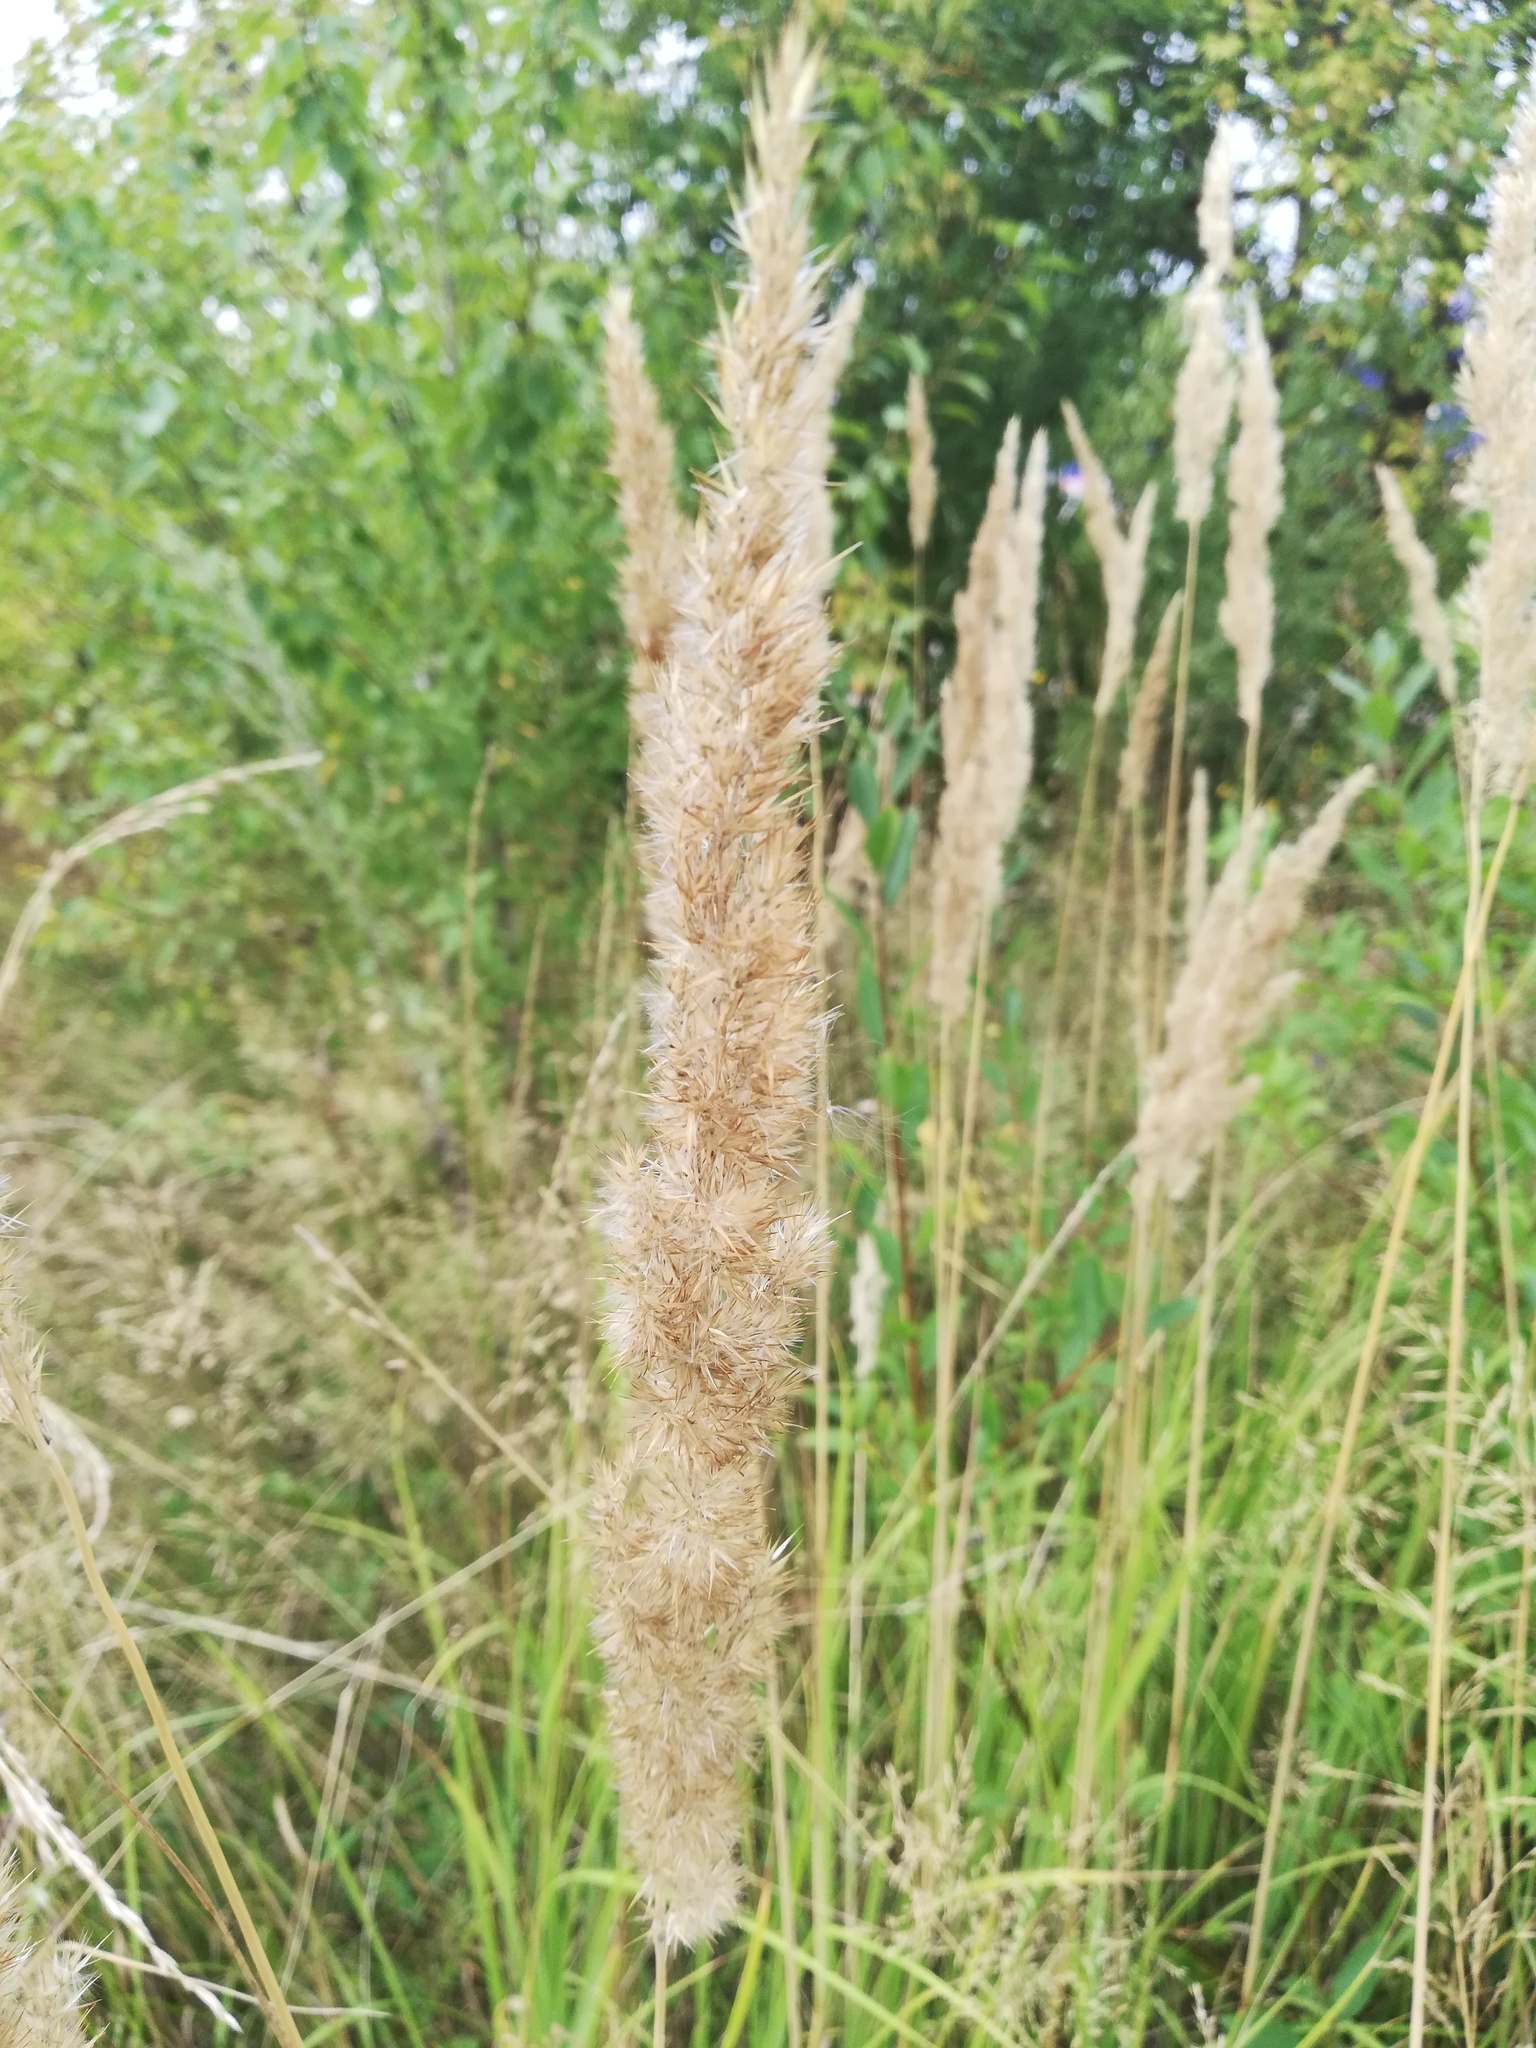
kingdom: Plantae
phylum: Tracheophyta
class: Liliopsida
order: Poales
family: Poaceae
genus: Calamagrostis
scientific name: Calamagrostis epigejos
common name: Wood small-reed
